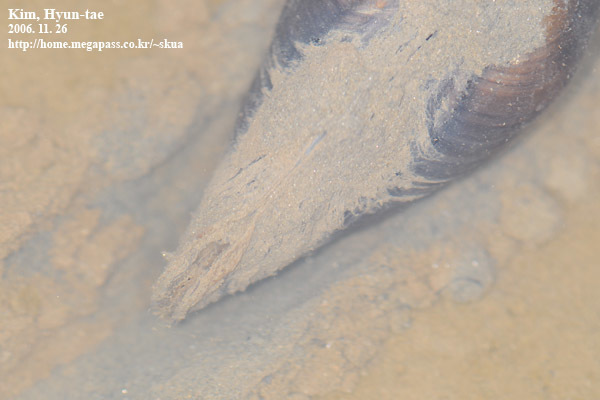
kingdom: Animalia
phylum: Mollusca
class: Bivalvia
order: Unionida
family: Unionidae
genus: Sinanodonta
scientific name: Sinanodonta schrenkii
